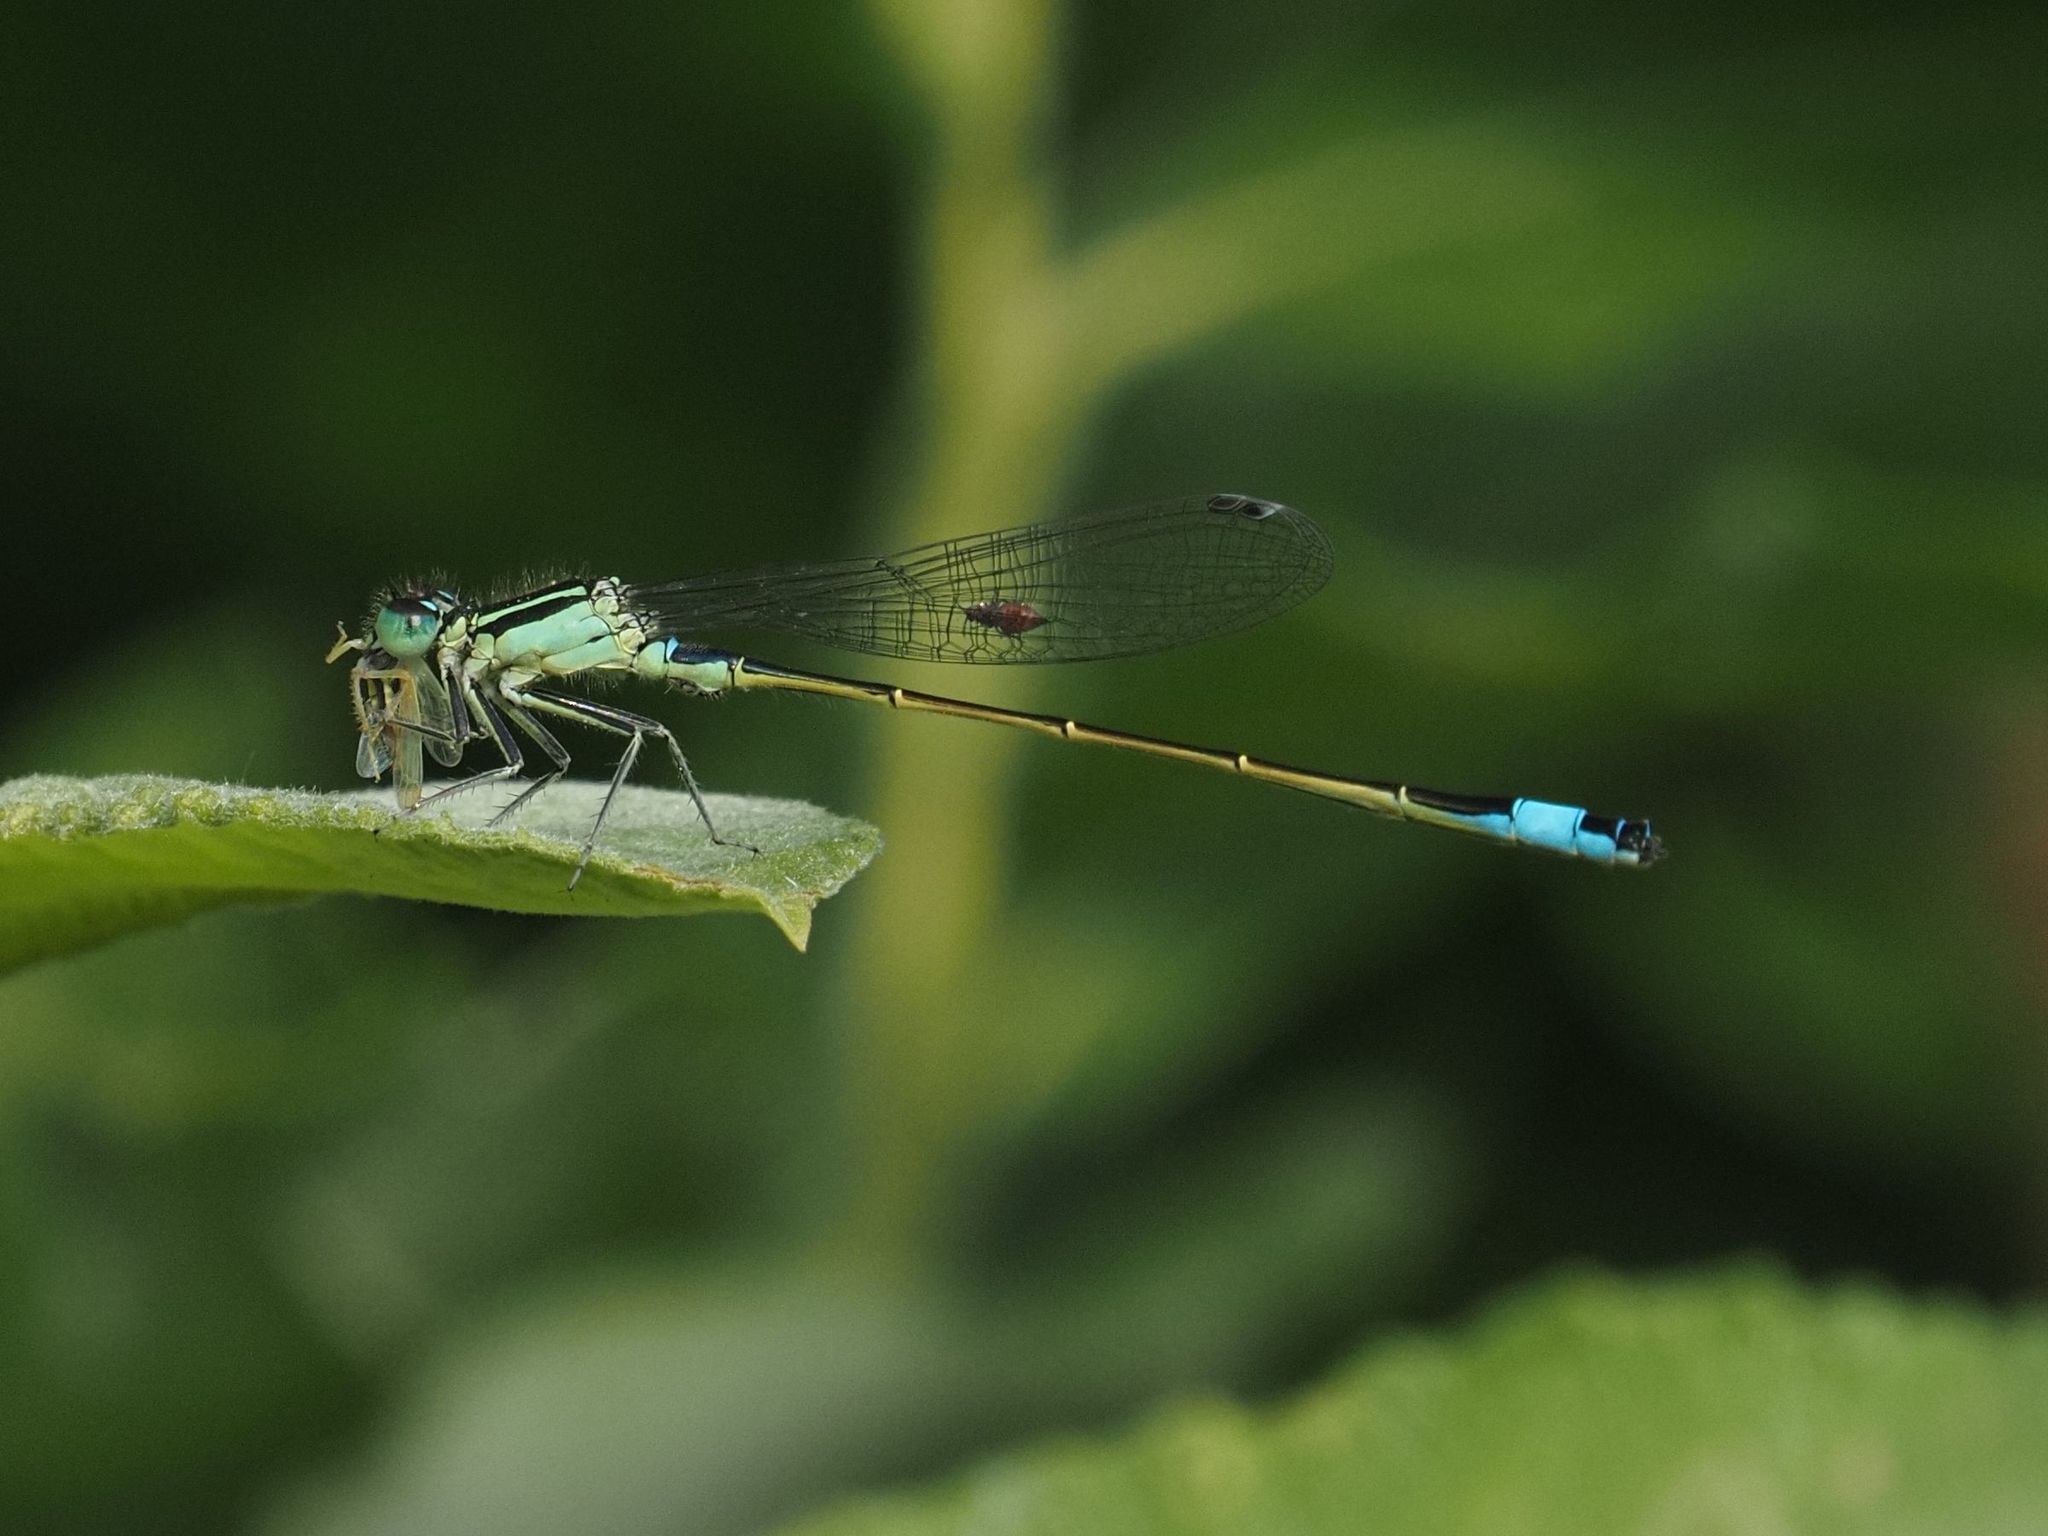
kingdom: Animalia
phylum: Arthropoda
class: Insecta
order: Odonata
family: Coenagrionidae
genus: Ischnura
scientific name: Ischnura elegans
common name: Blue-tailed damselfly
